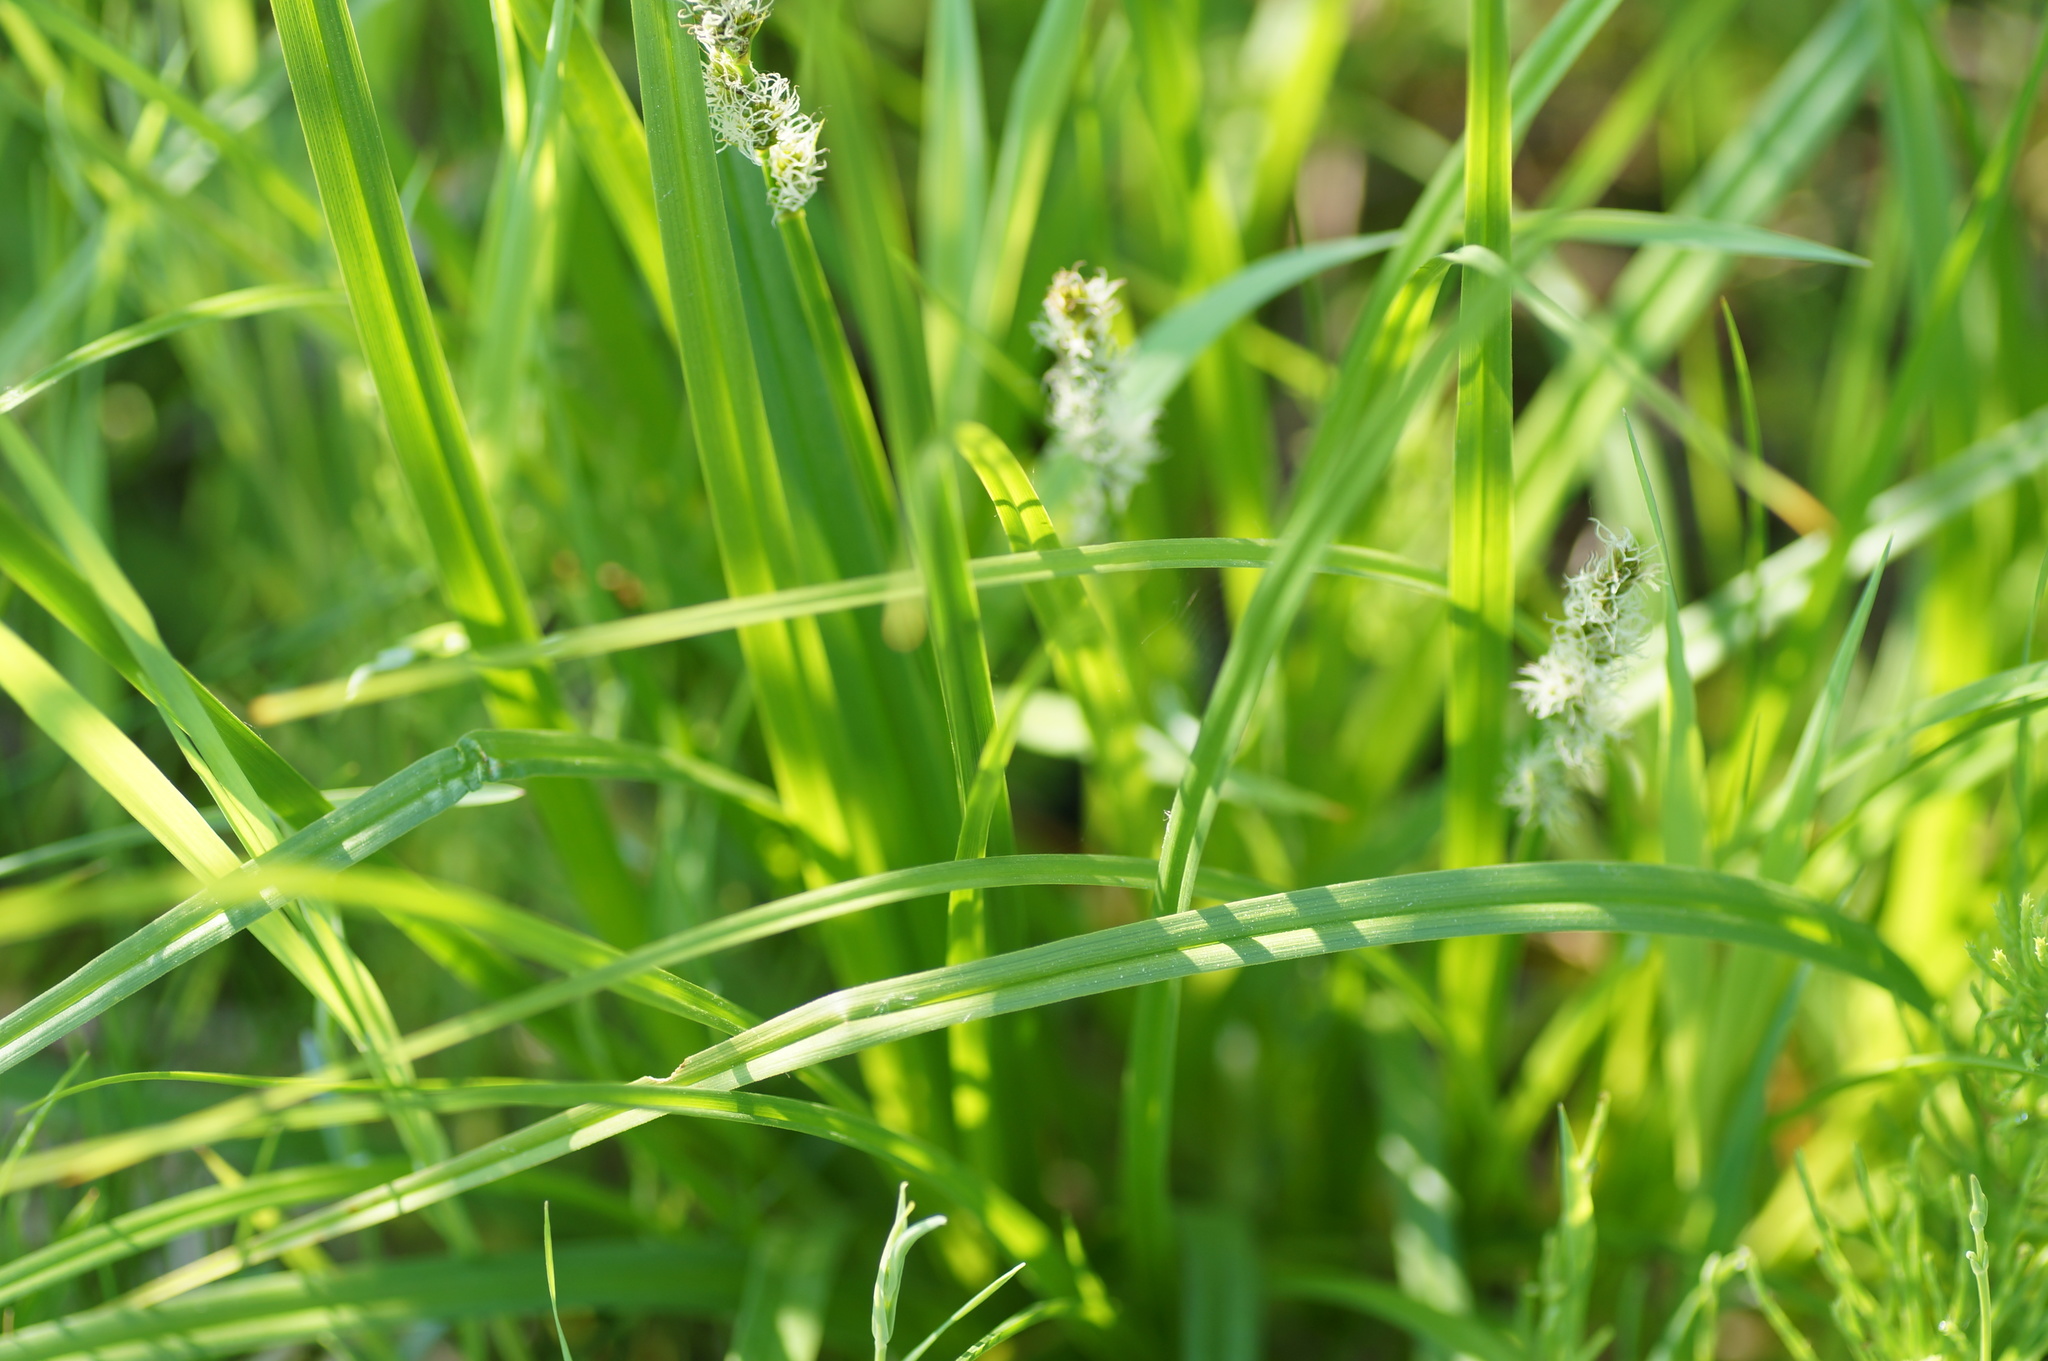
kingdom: Plantae
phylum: Tracheophyta
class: Liliopsida
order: Poales
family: Cyperaceae
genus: Carex
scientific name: Carex vulpina
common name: True fox-sedge
